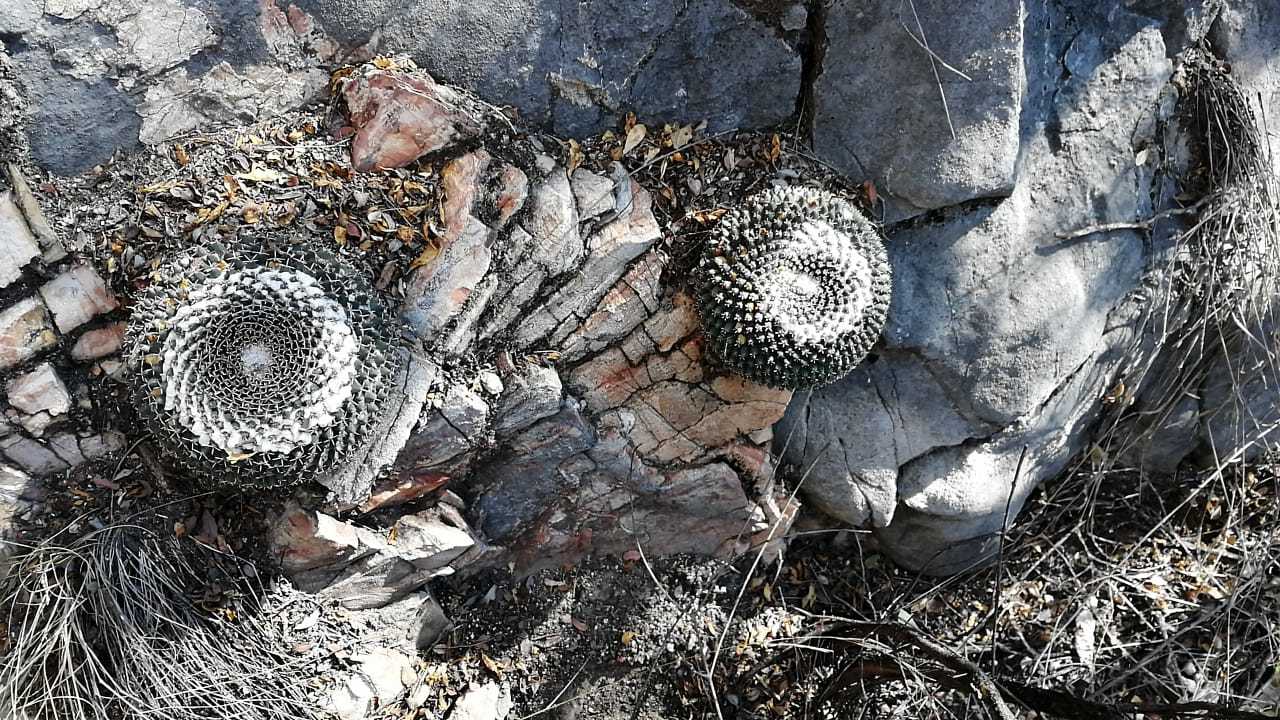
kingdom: Plantae
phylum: Tracheophyta
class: Magnoliopsida
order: Caryophyllales
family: Cactaceae
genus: Mammillaria
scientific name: Mammillaria
